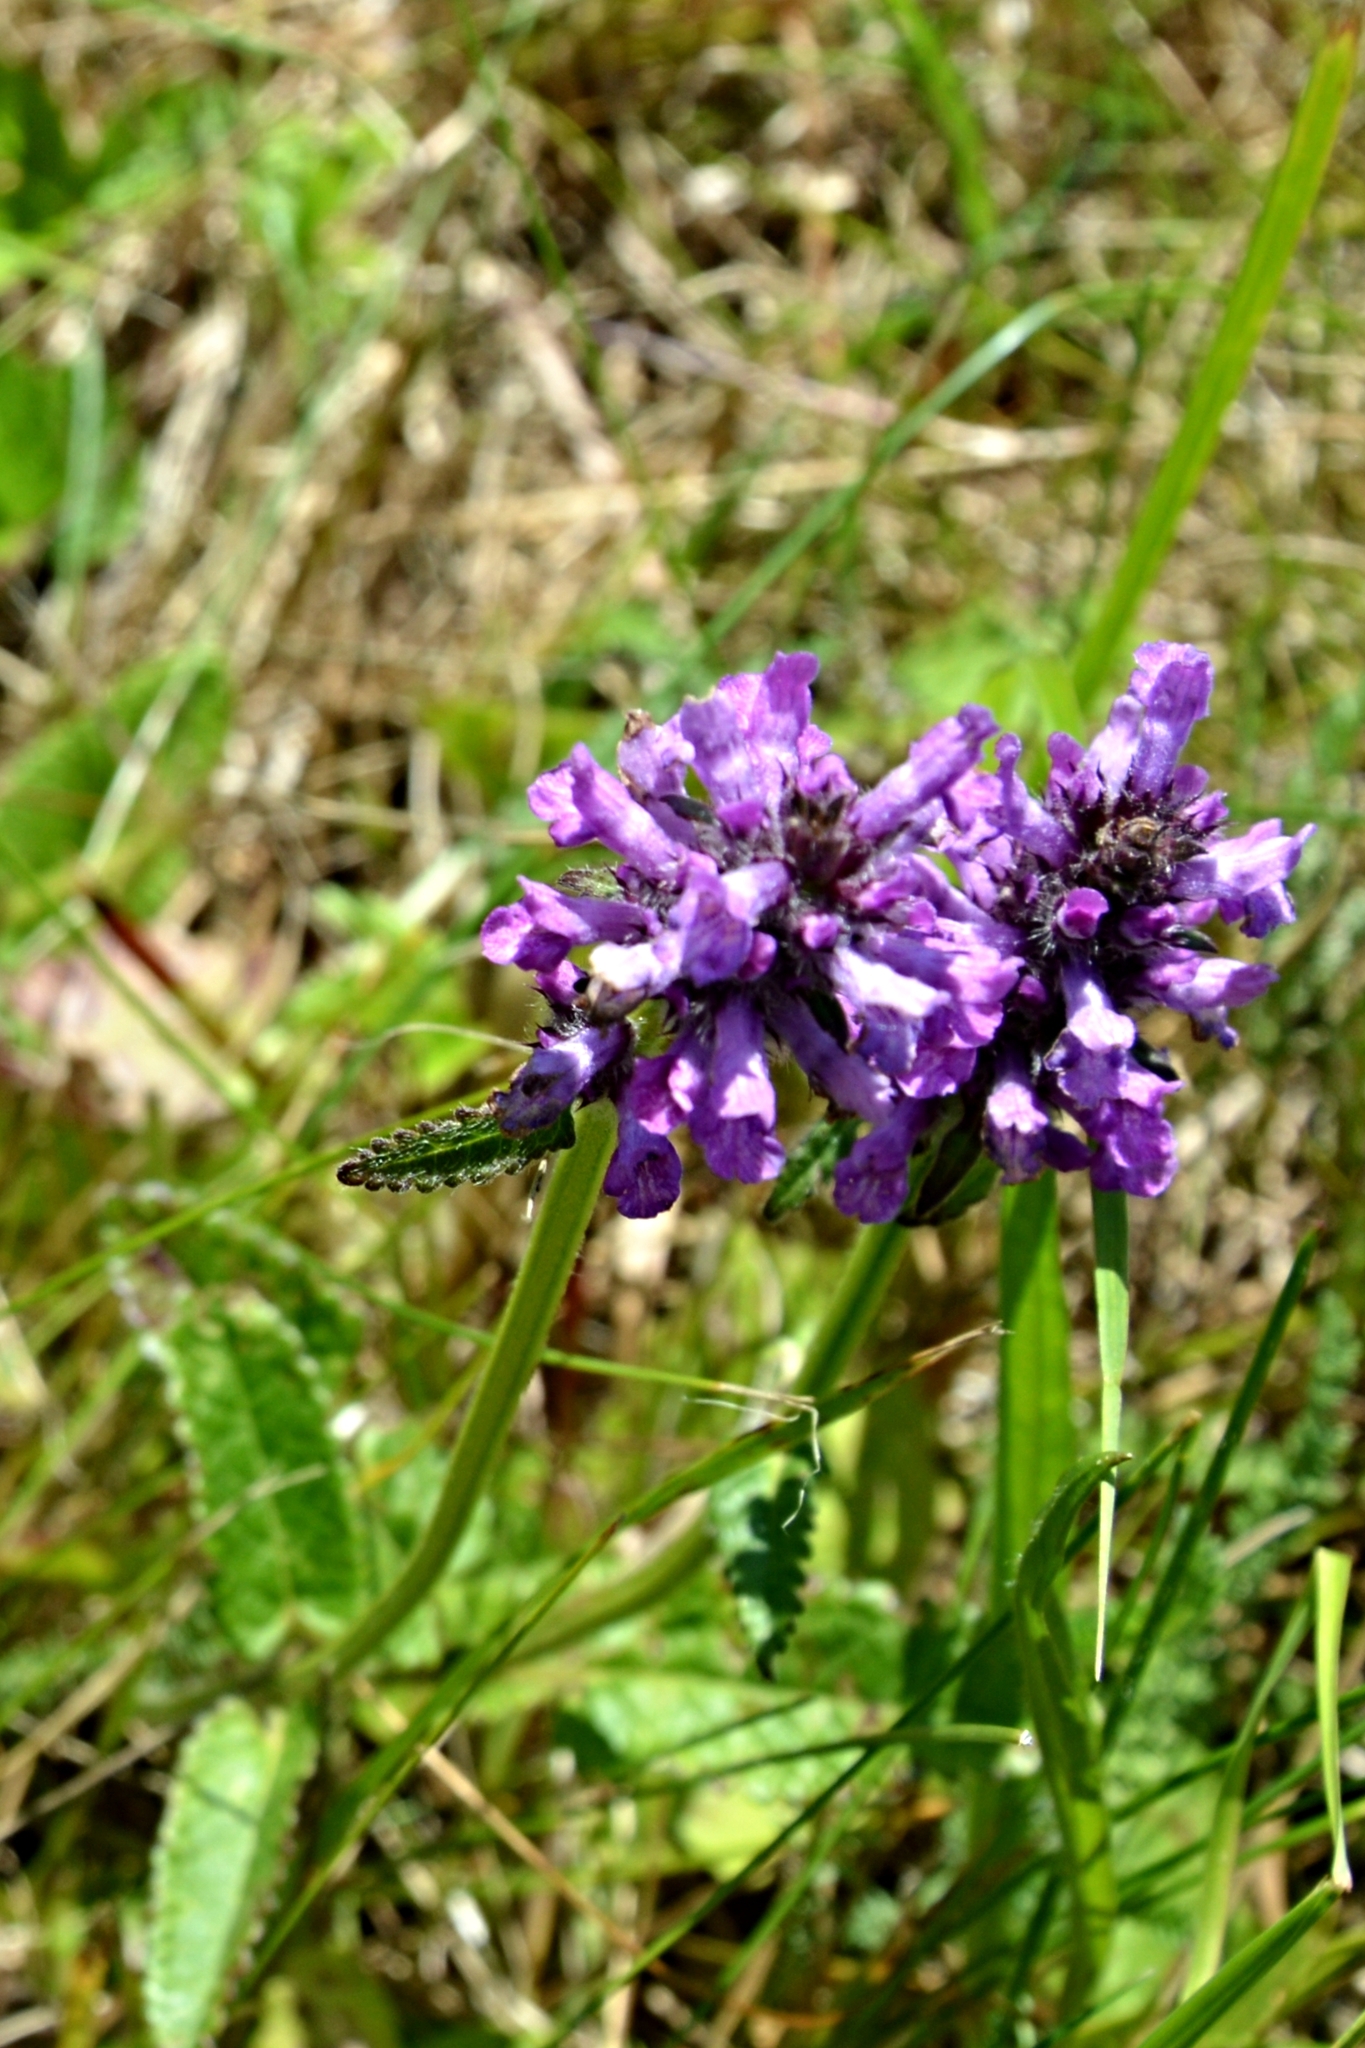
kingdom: Plantae
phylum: Tracheophyta
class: Magnoliopsida
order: Lamiales
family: Lamiaceae
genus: Betonica
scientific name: Betonica officinalis
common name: Bishop's-wort
